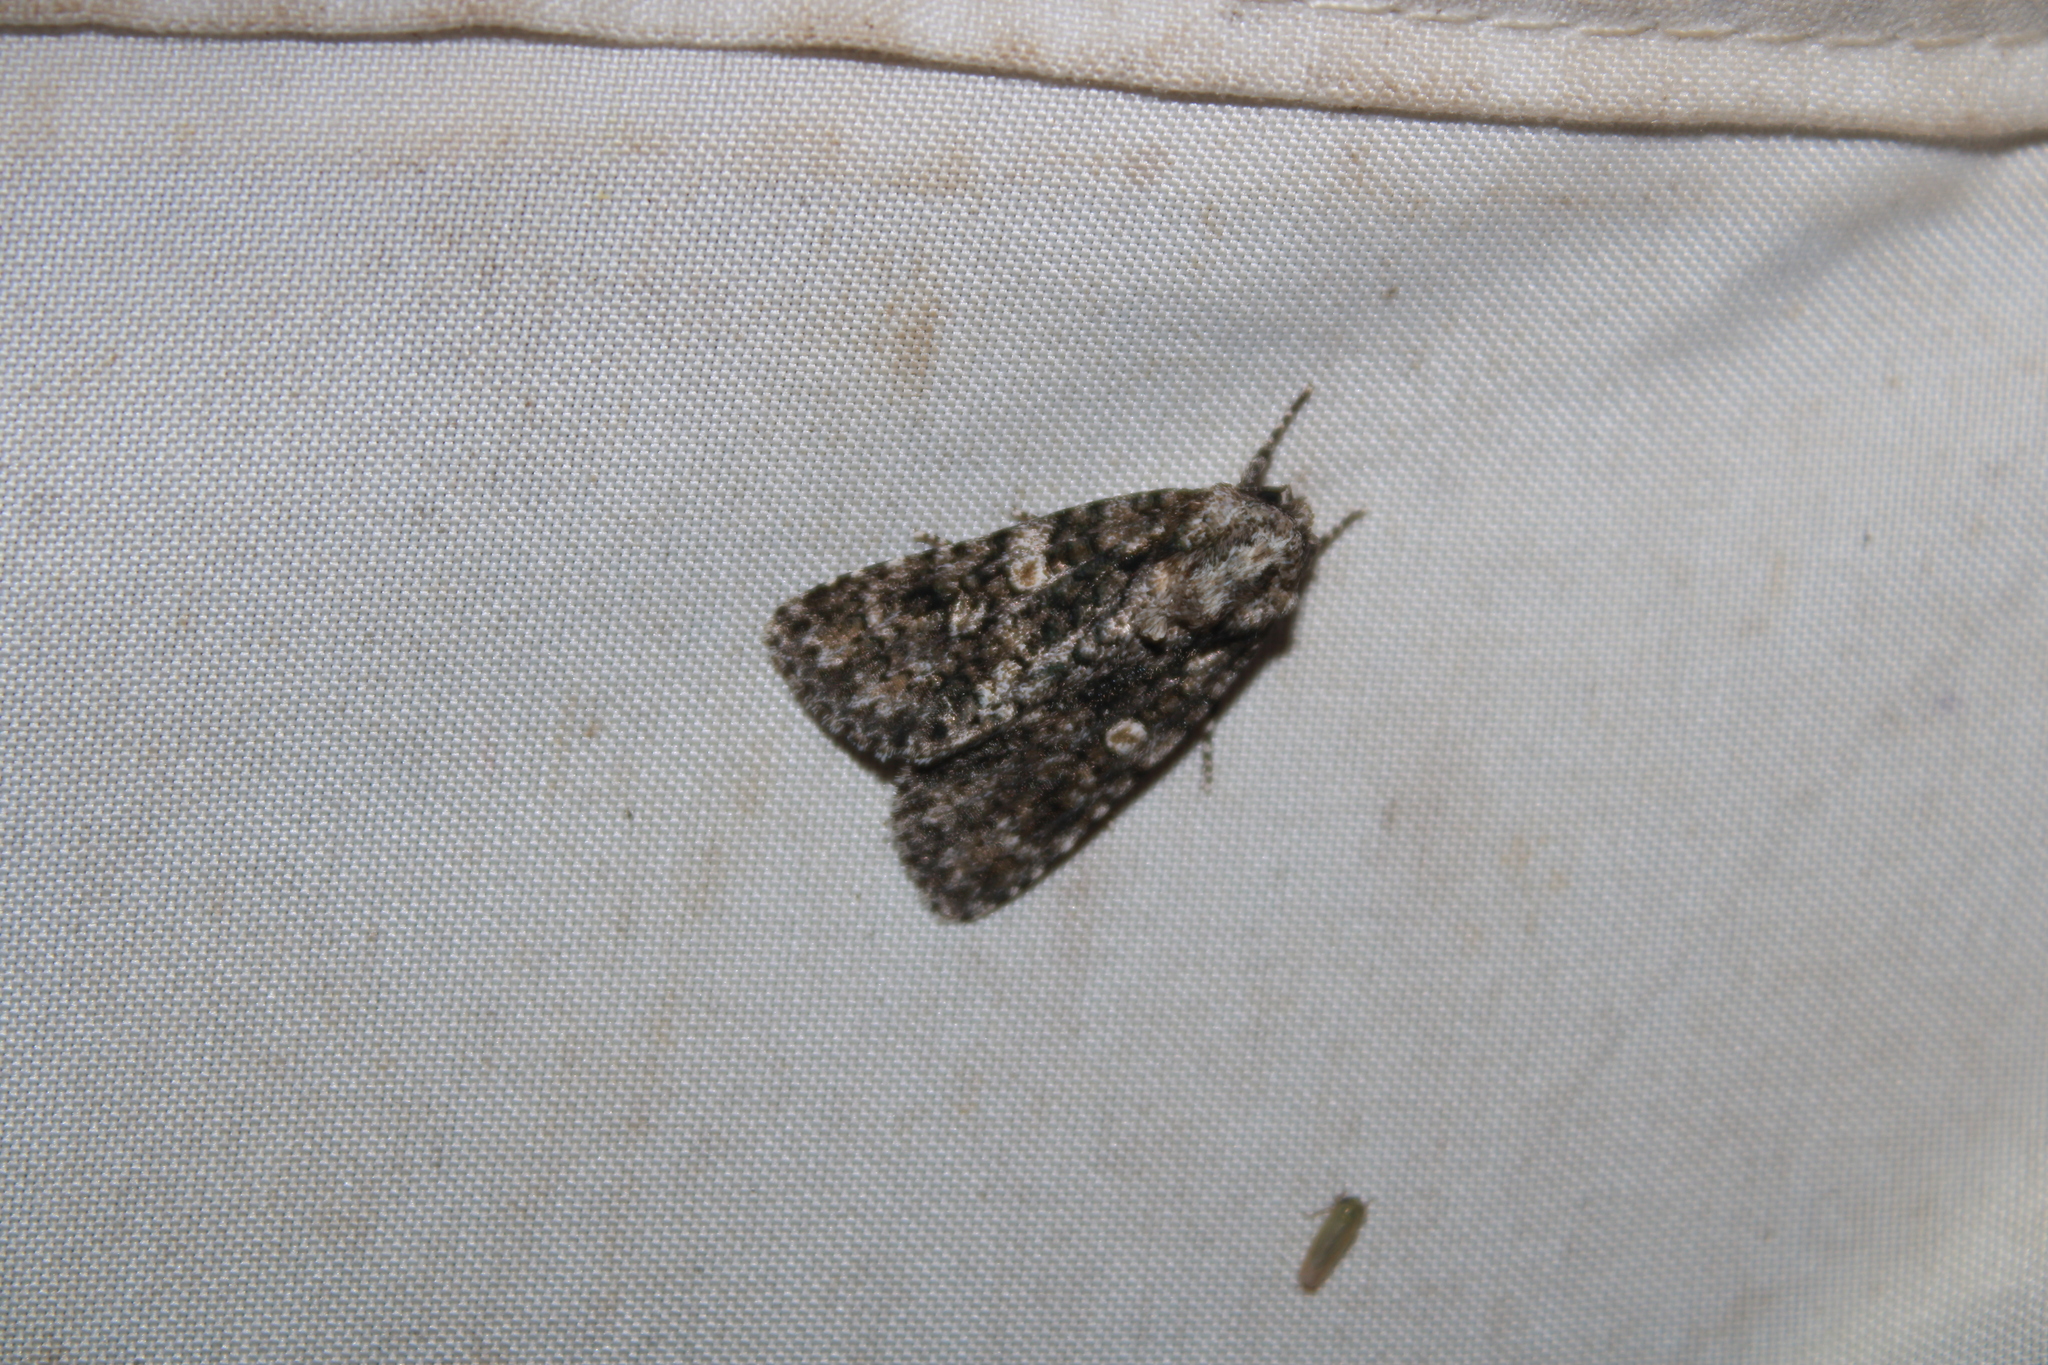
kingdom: Animalia
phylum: Arthropoda
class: Insecta
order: Lepidoptera
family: Noctuidae
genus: Acronicta
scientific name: Acronicta afflicta
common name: Afflicted dagger moth
